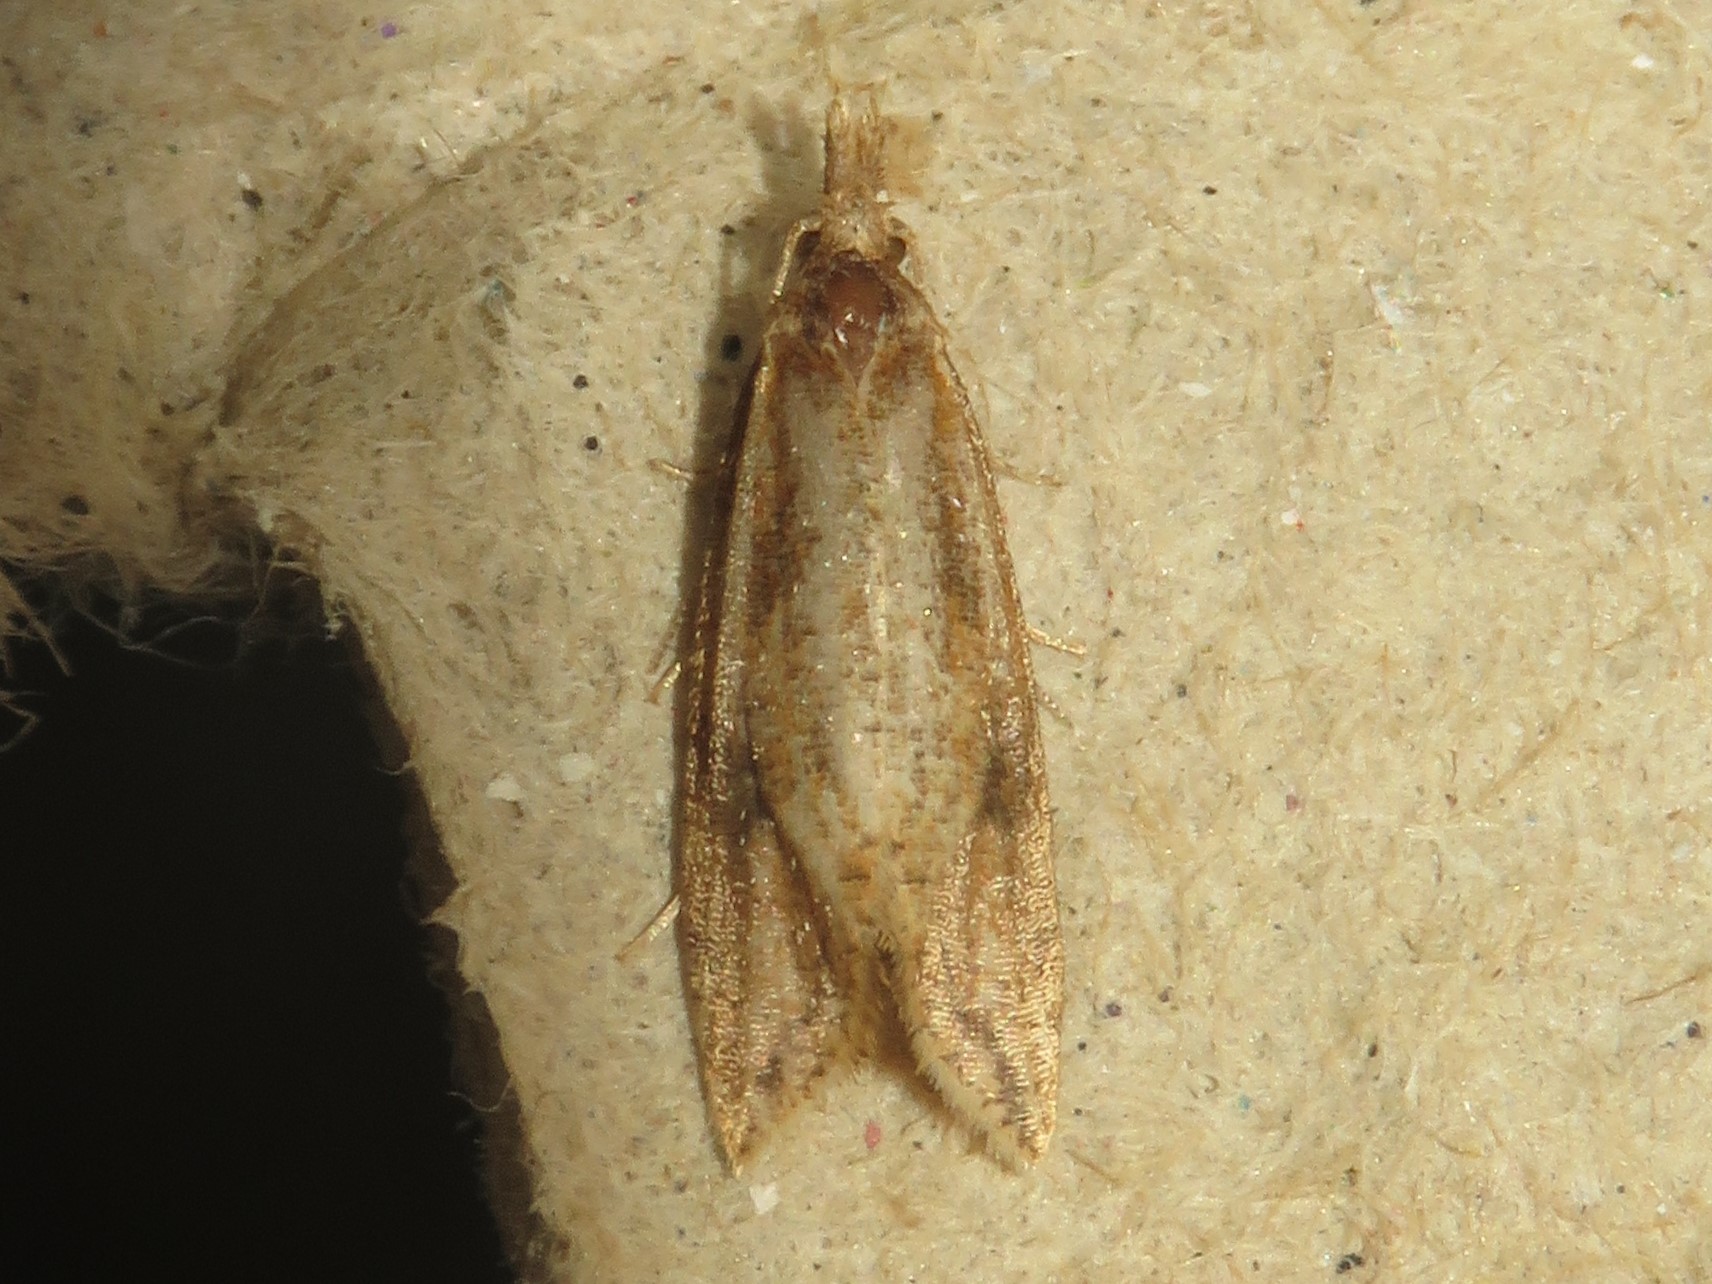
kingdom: Animalia
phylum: Arthropoda
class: Insecta
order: Lepidoptera
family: Tortricidae
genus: Aethes
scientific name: Aethes biscana
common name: Reddish aethes
